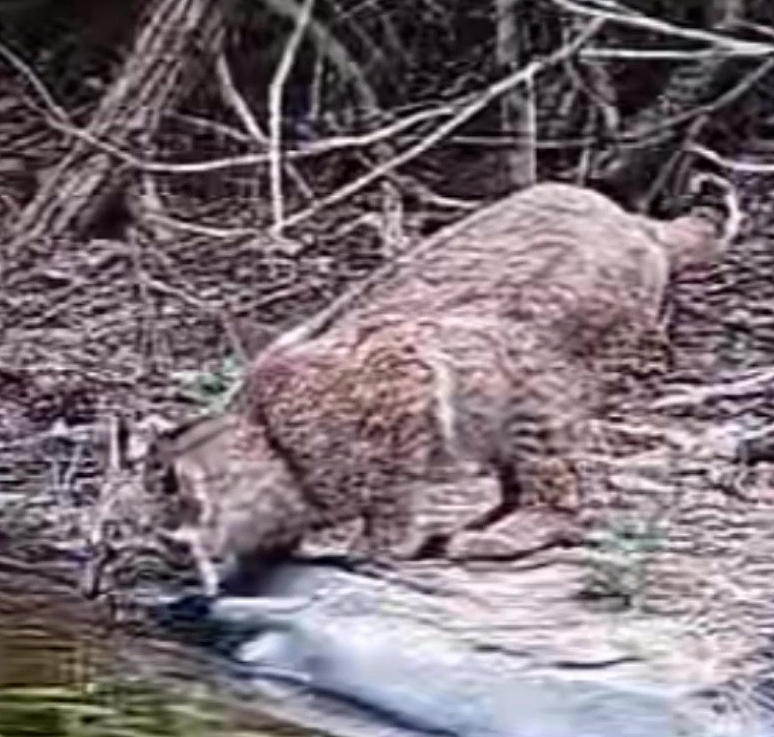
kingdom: Animalia
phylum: Chordata
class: Mammalia
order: Carnivora
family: Felidae
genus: Lynx
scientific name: Lynx rufus
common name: Bobcat
